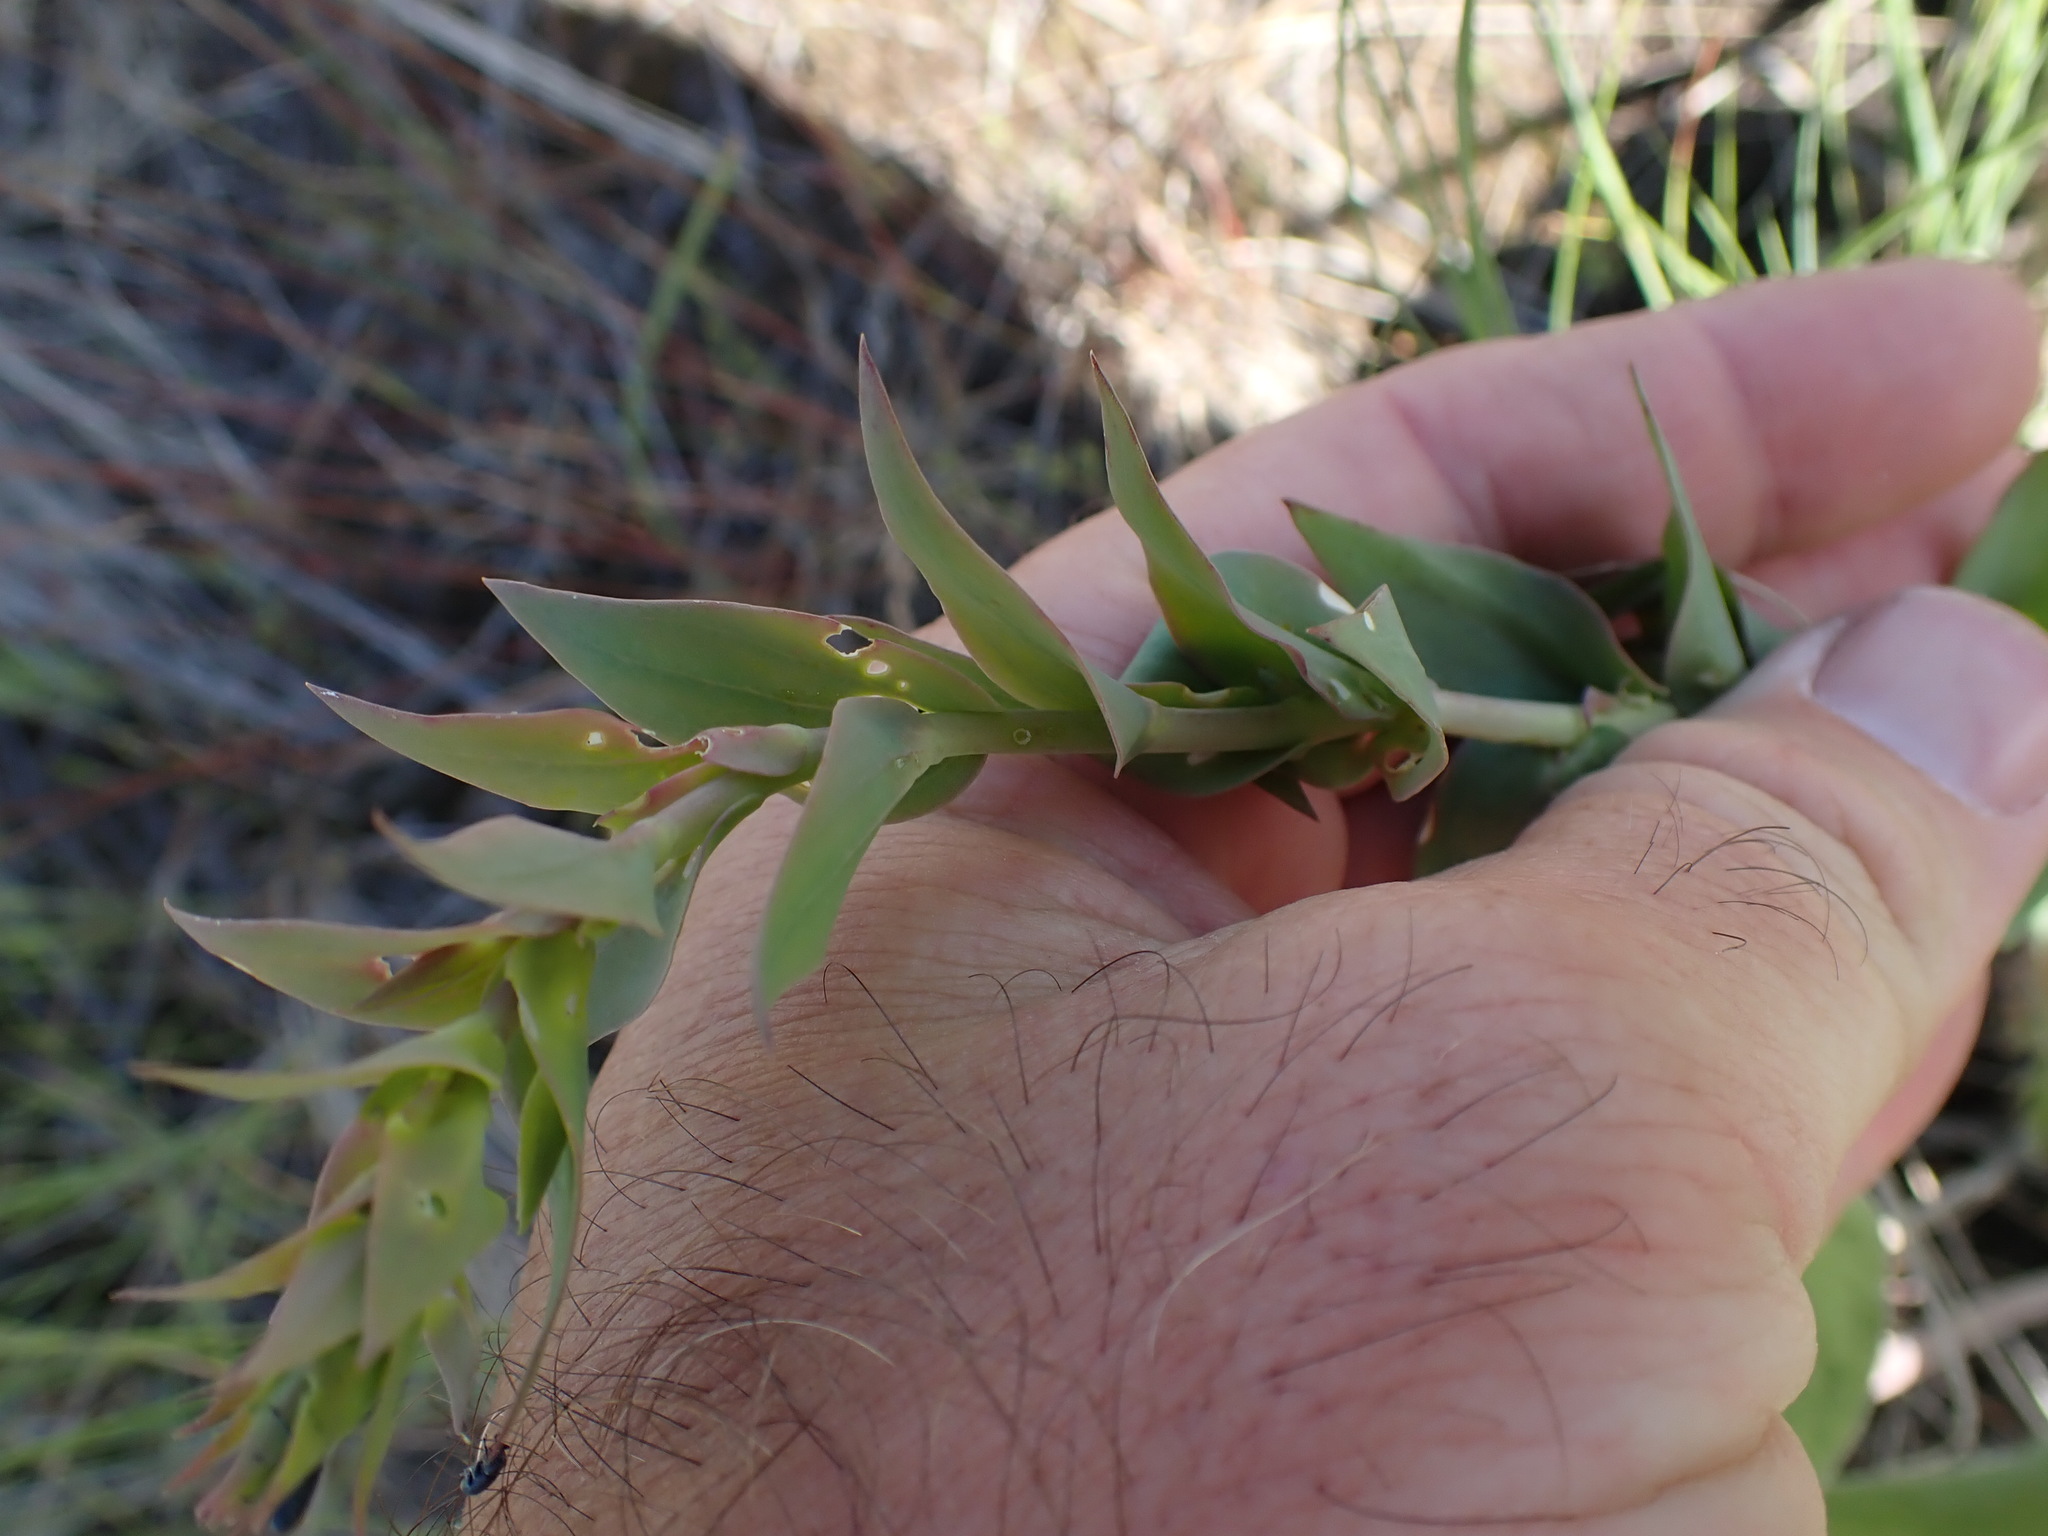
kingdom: Plantae
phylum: Tracheophyta
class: Magnoliopsida
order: Lamiales
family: Plantaginaceae
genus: Linaria
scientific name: Linaria dalmatica
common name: Dalmatian toadflax
